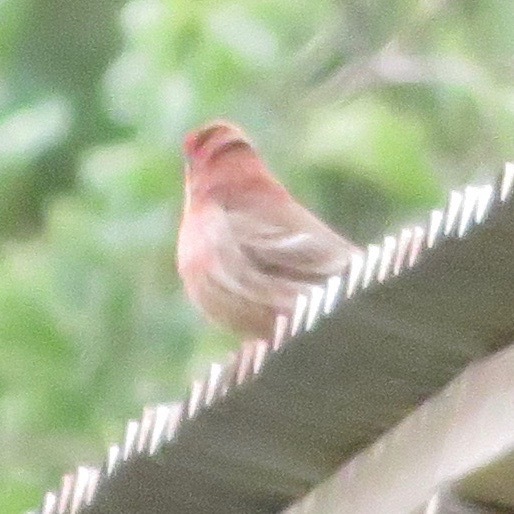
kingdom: Animalia
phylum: Chordata
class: Aves
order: Passeriformes
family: Fringillidae
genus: Haemorhous
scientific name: Haemorhous mexicanus
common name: House finch
